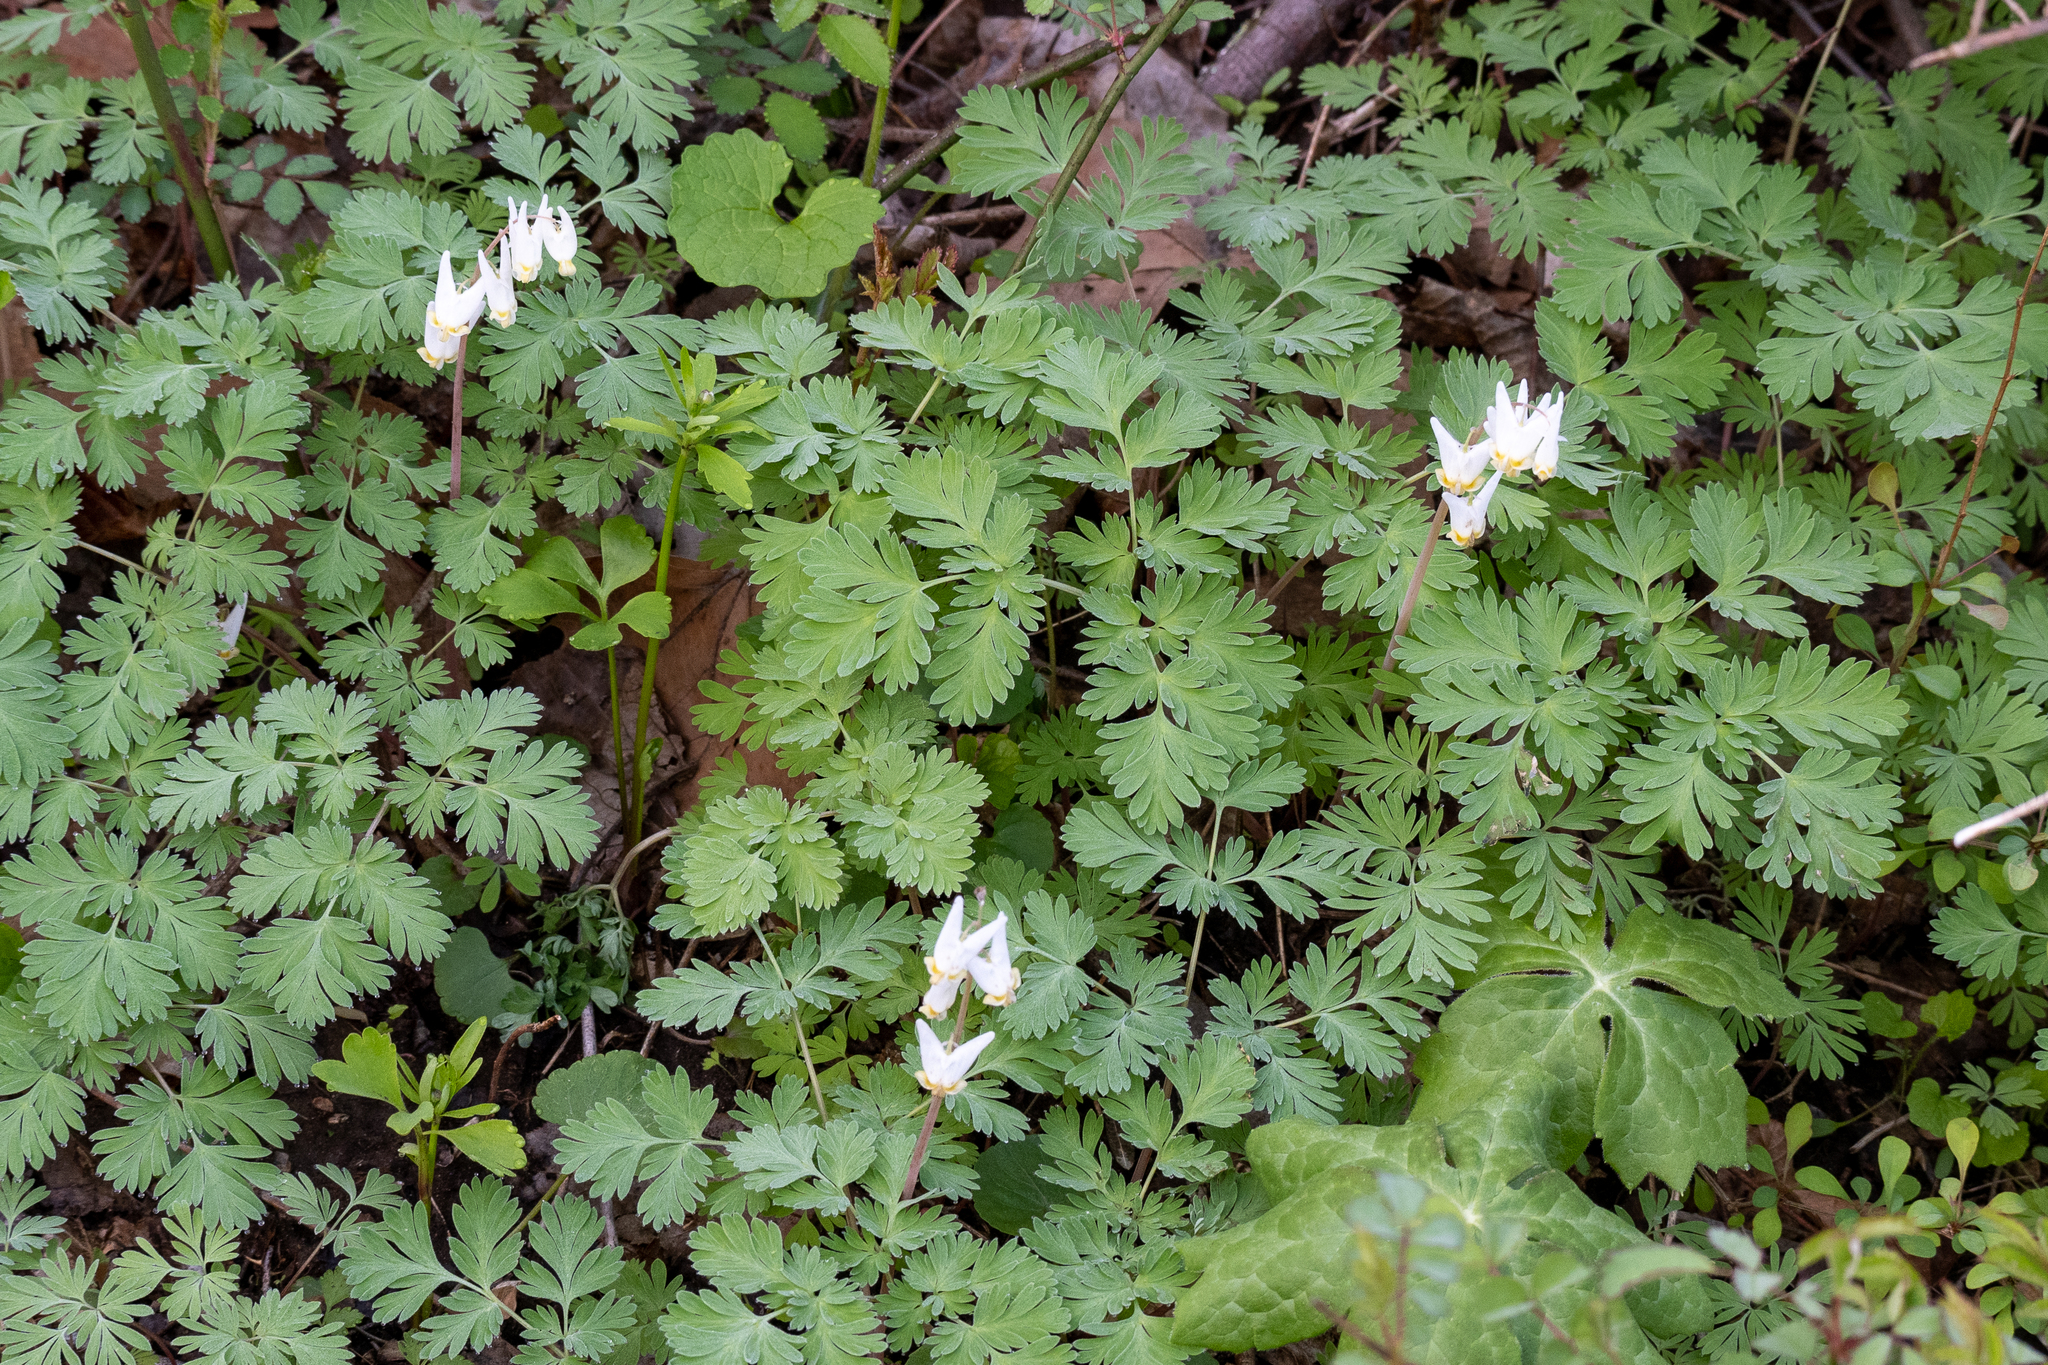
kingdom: Plantae
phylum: Tracheophyta
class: Magnoliopsida
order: Ranunculales
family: Papaveraceae
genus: Dicentra
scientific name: Dicentra cucullaria
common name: Dutchman's breeches
